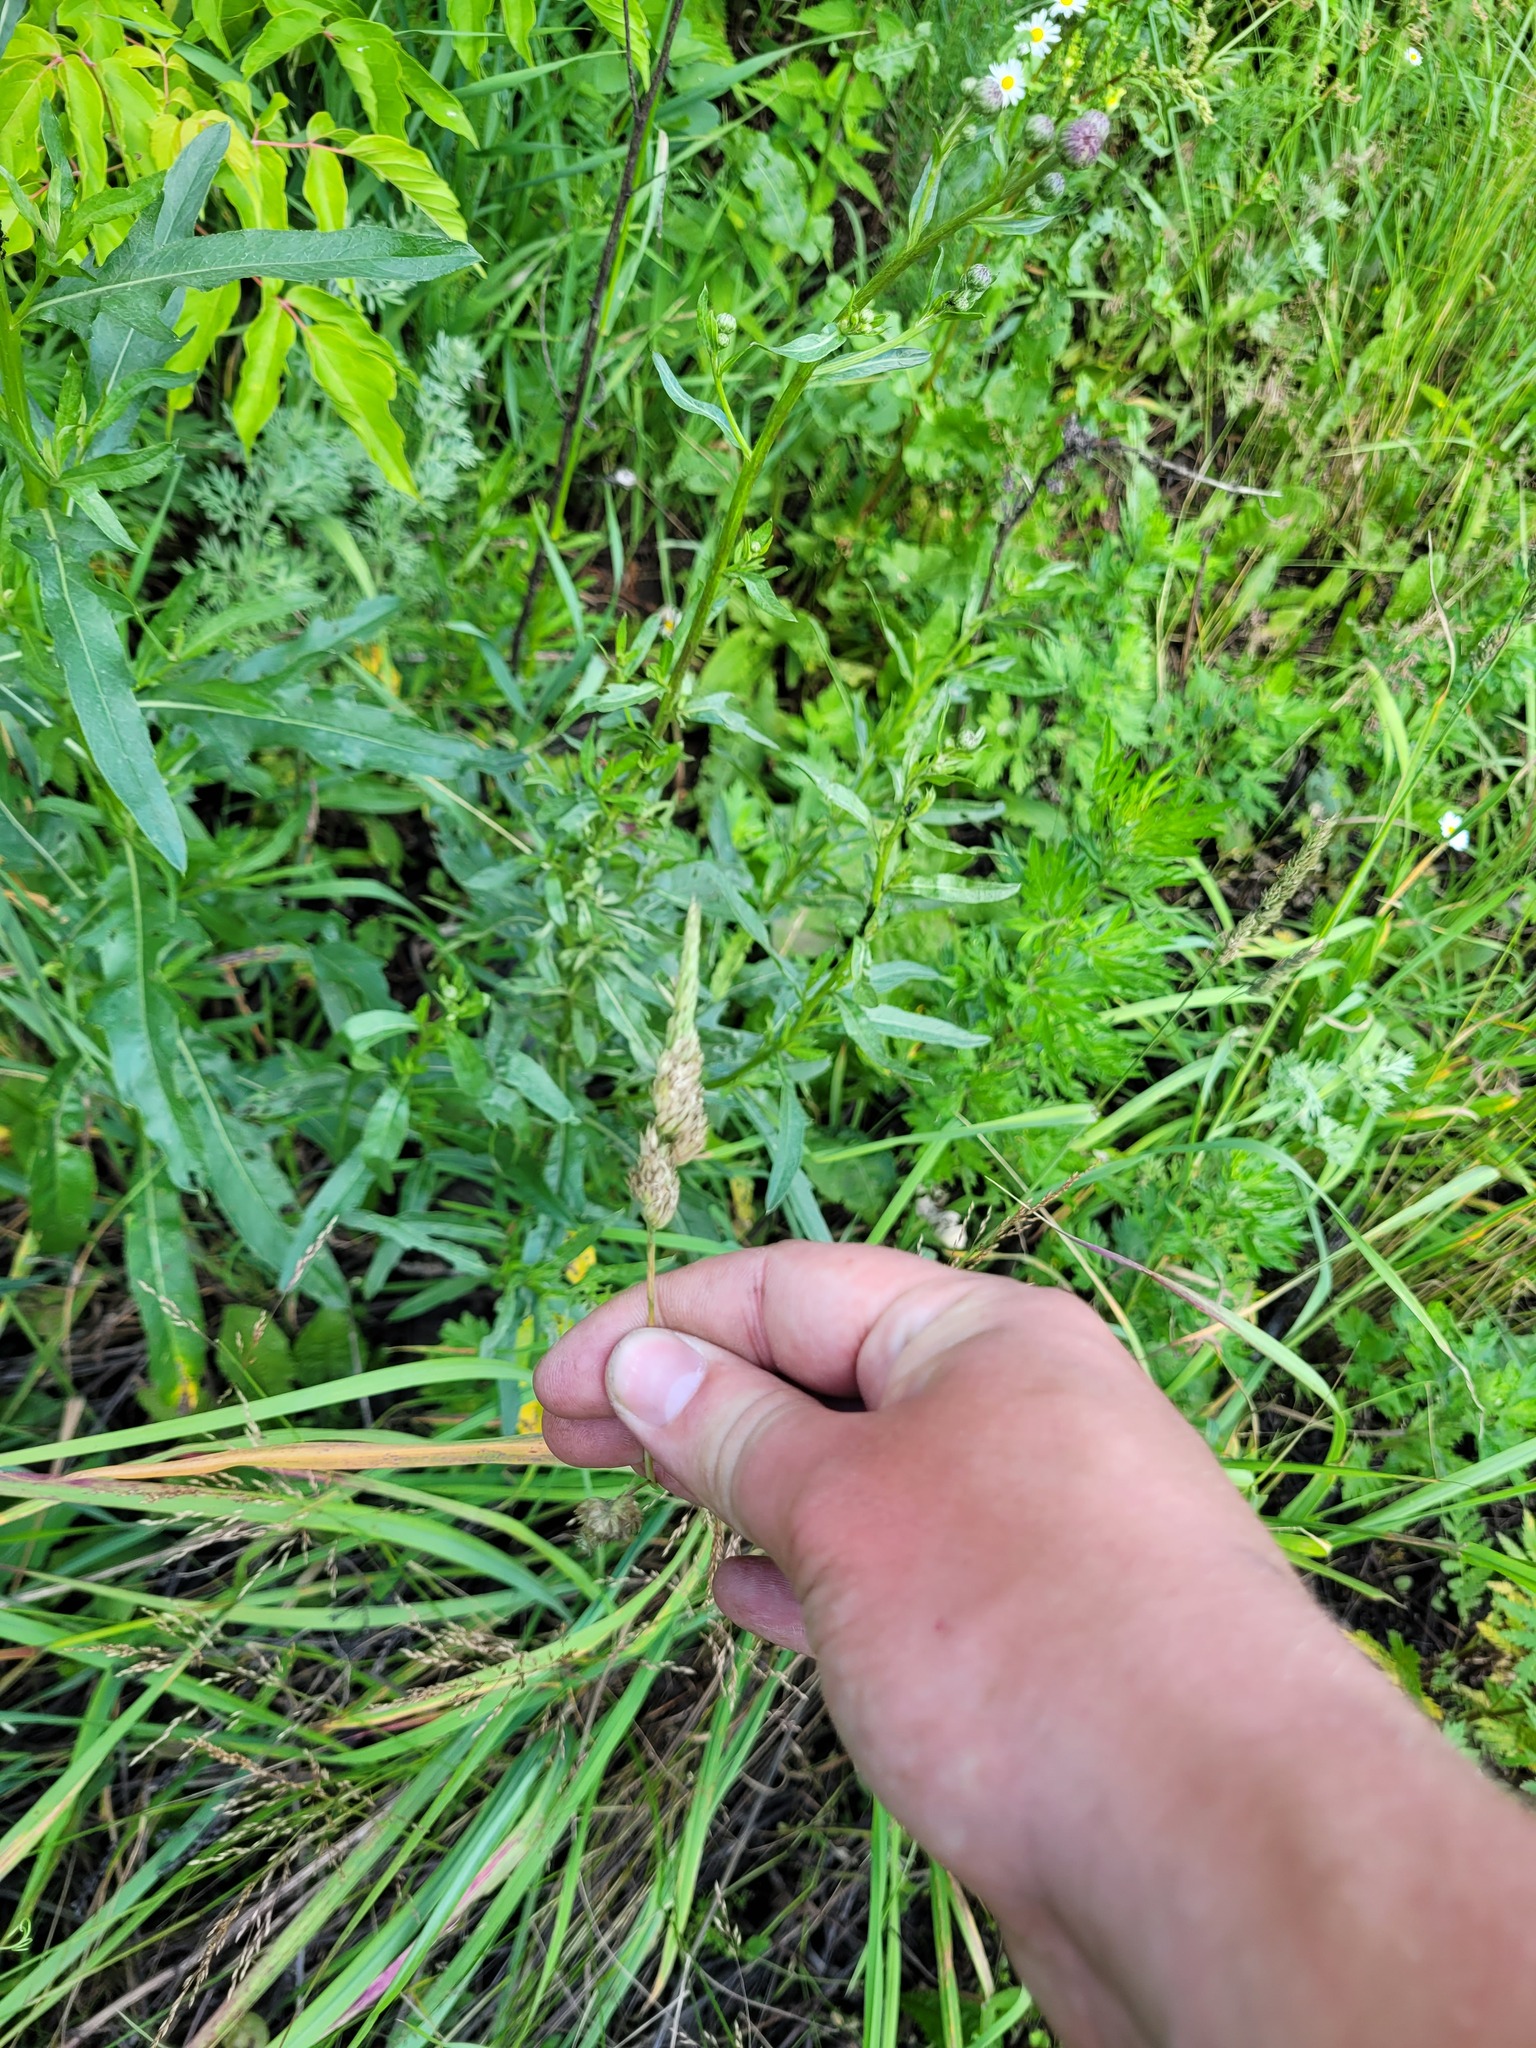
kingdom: Plantae
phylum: Tracheophyta
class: Liliopsida
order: Poales
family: Poaceae
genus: Dactylis
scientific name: Dactylis glomerata
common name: Orchardgrass
